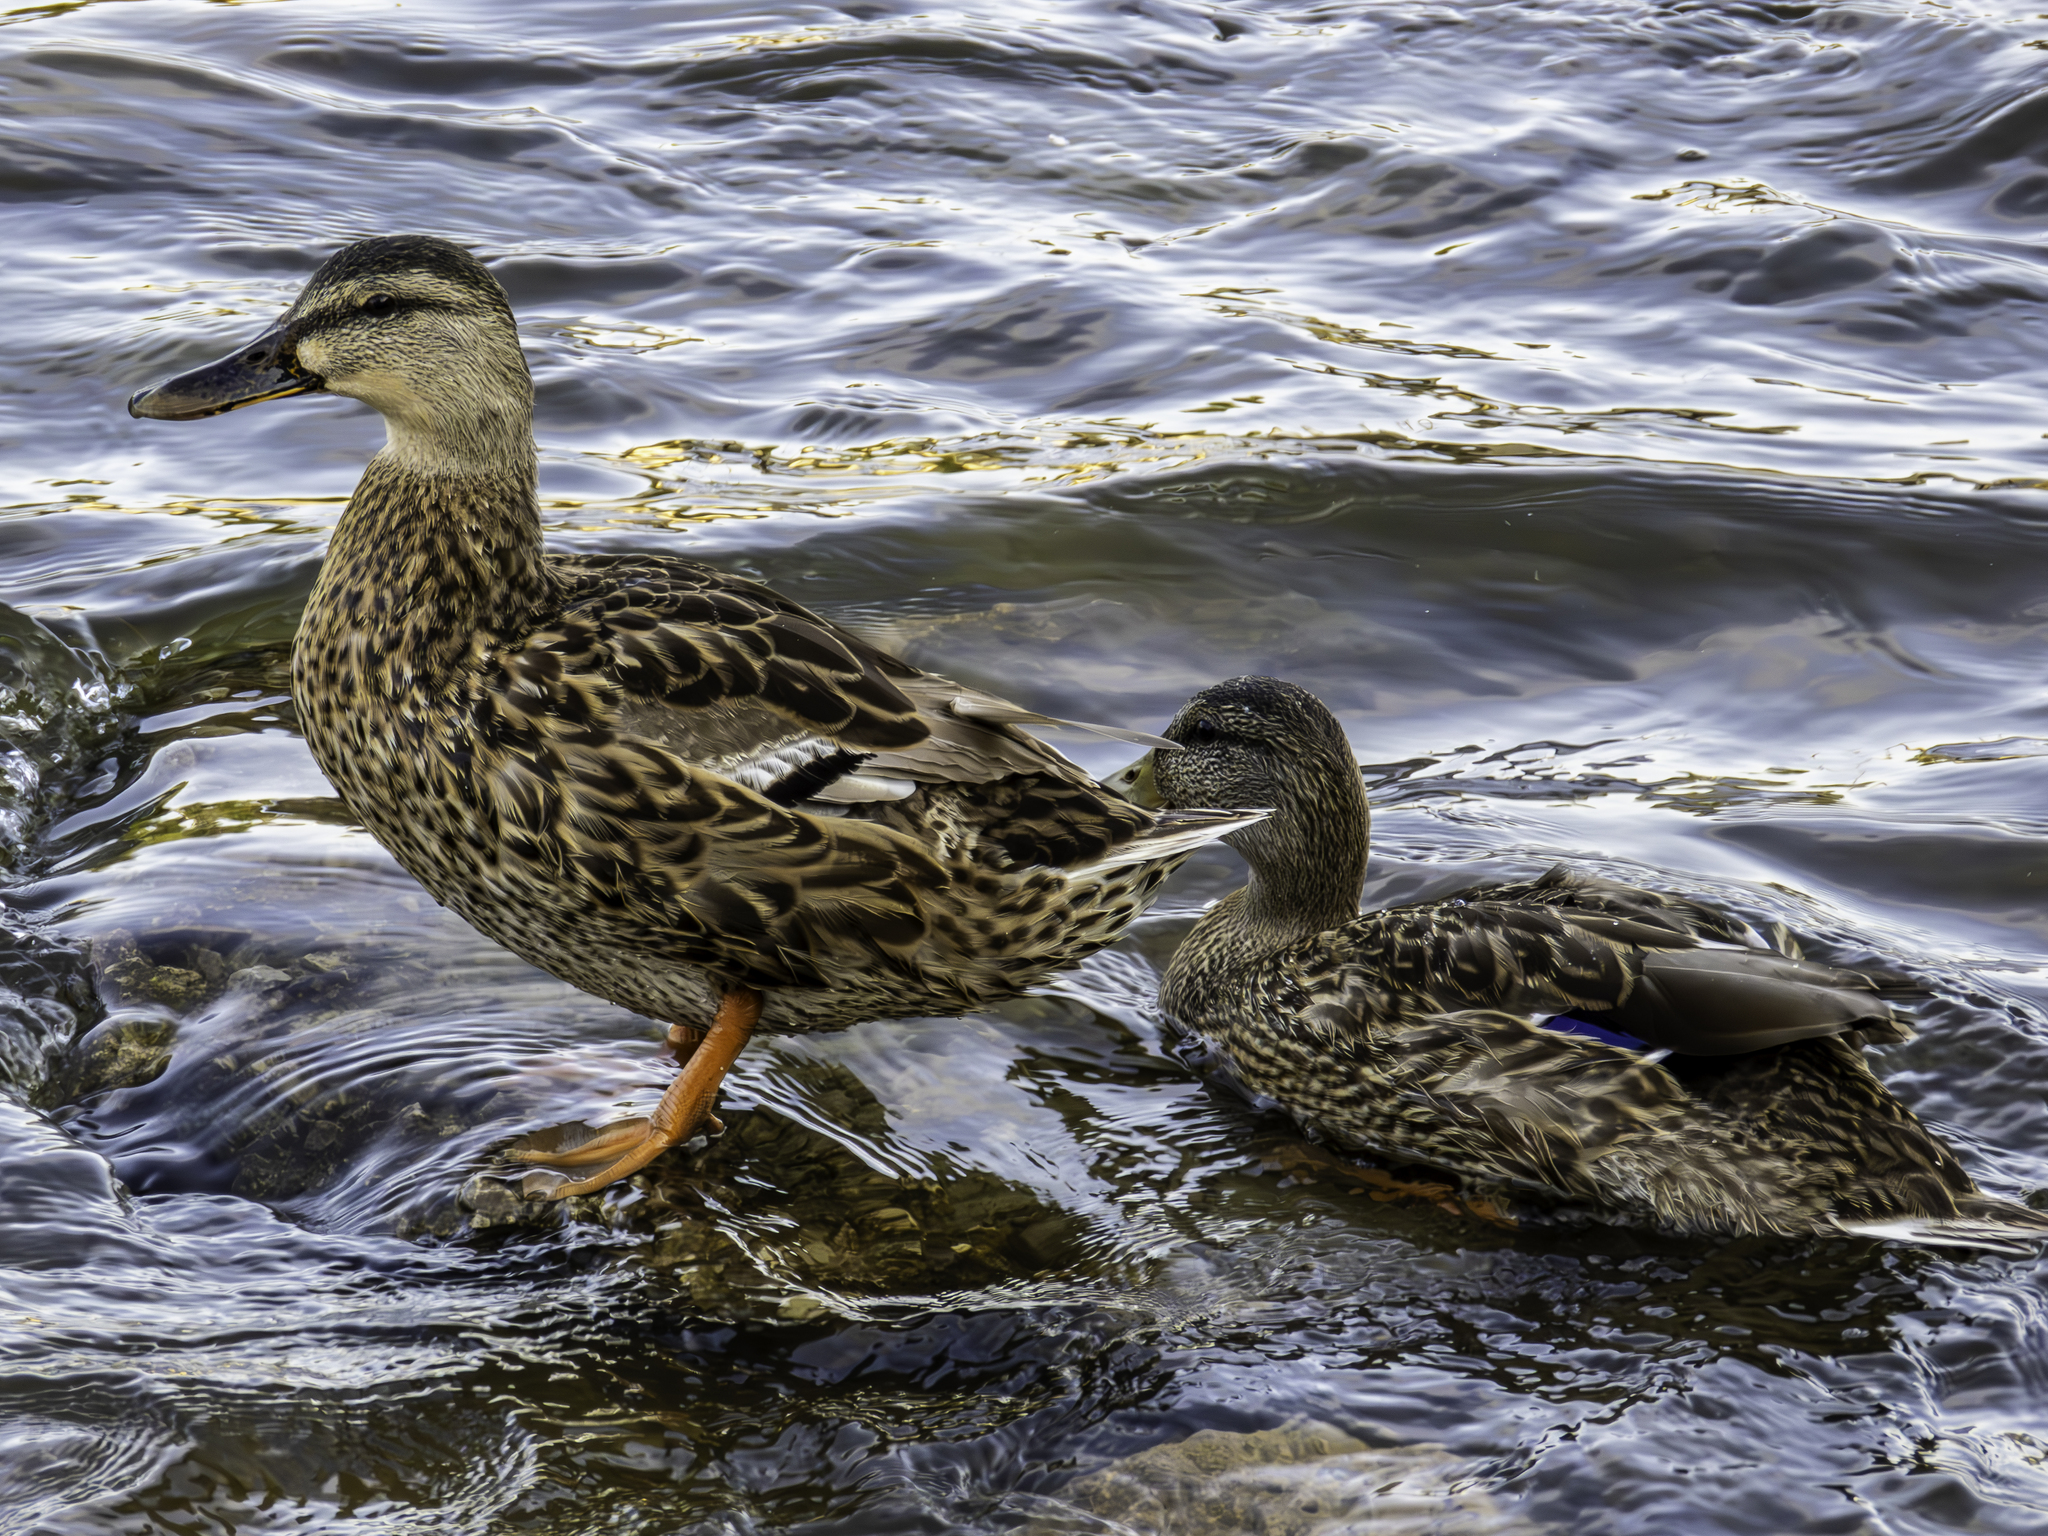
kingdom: Animalia
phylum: Chordata
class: Aves
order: Anseriformes
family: Anatidae
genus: Anas
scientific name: Anas platyrhynchos
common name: Mallard
